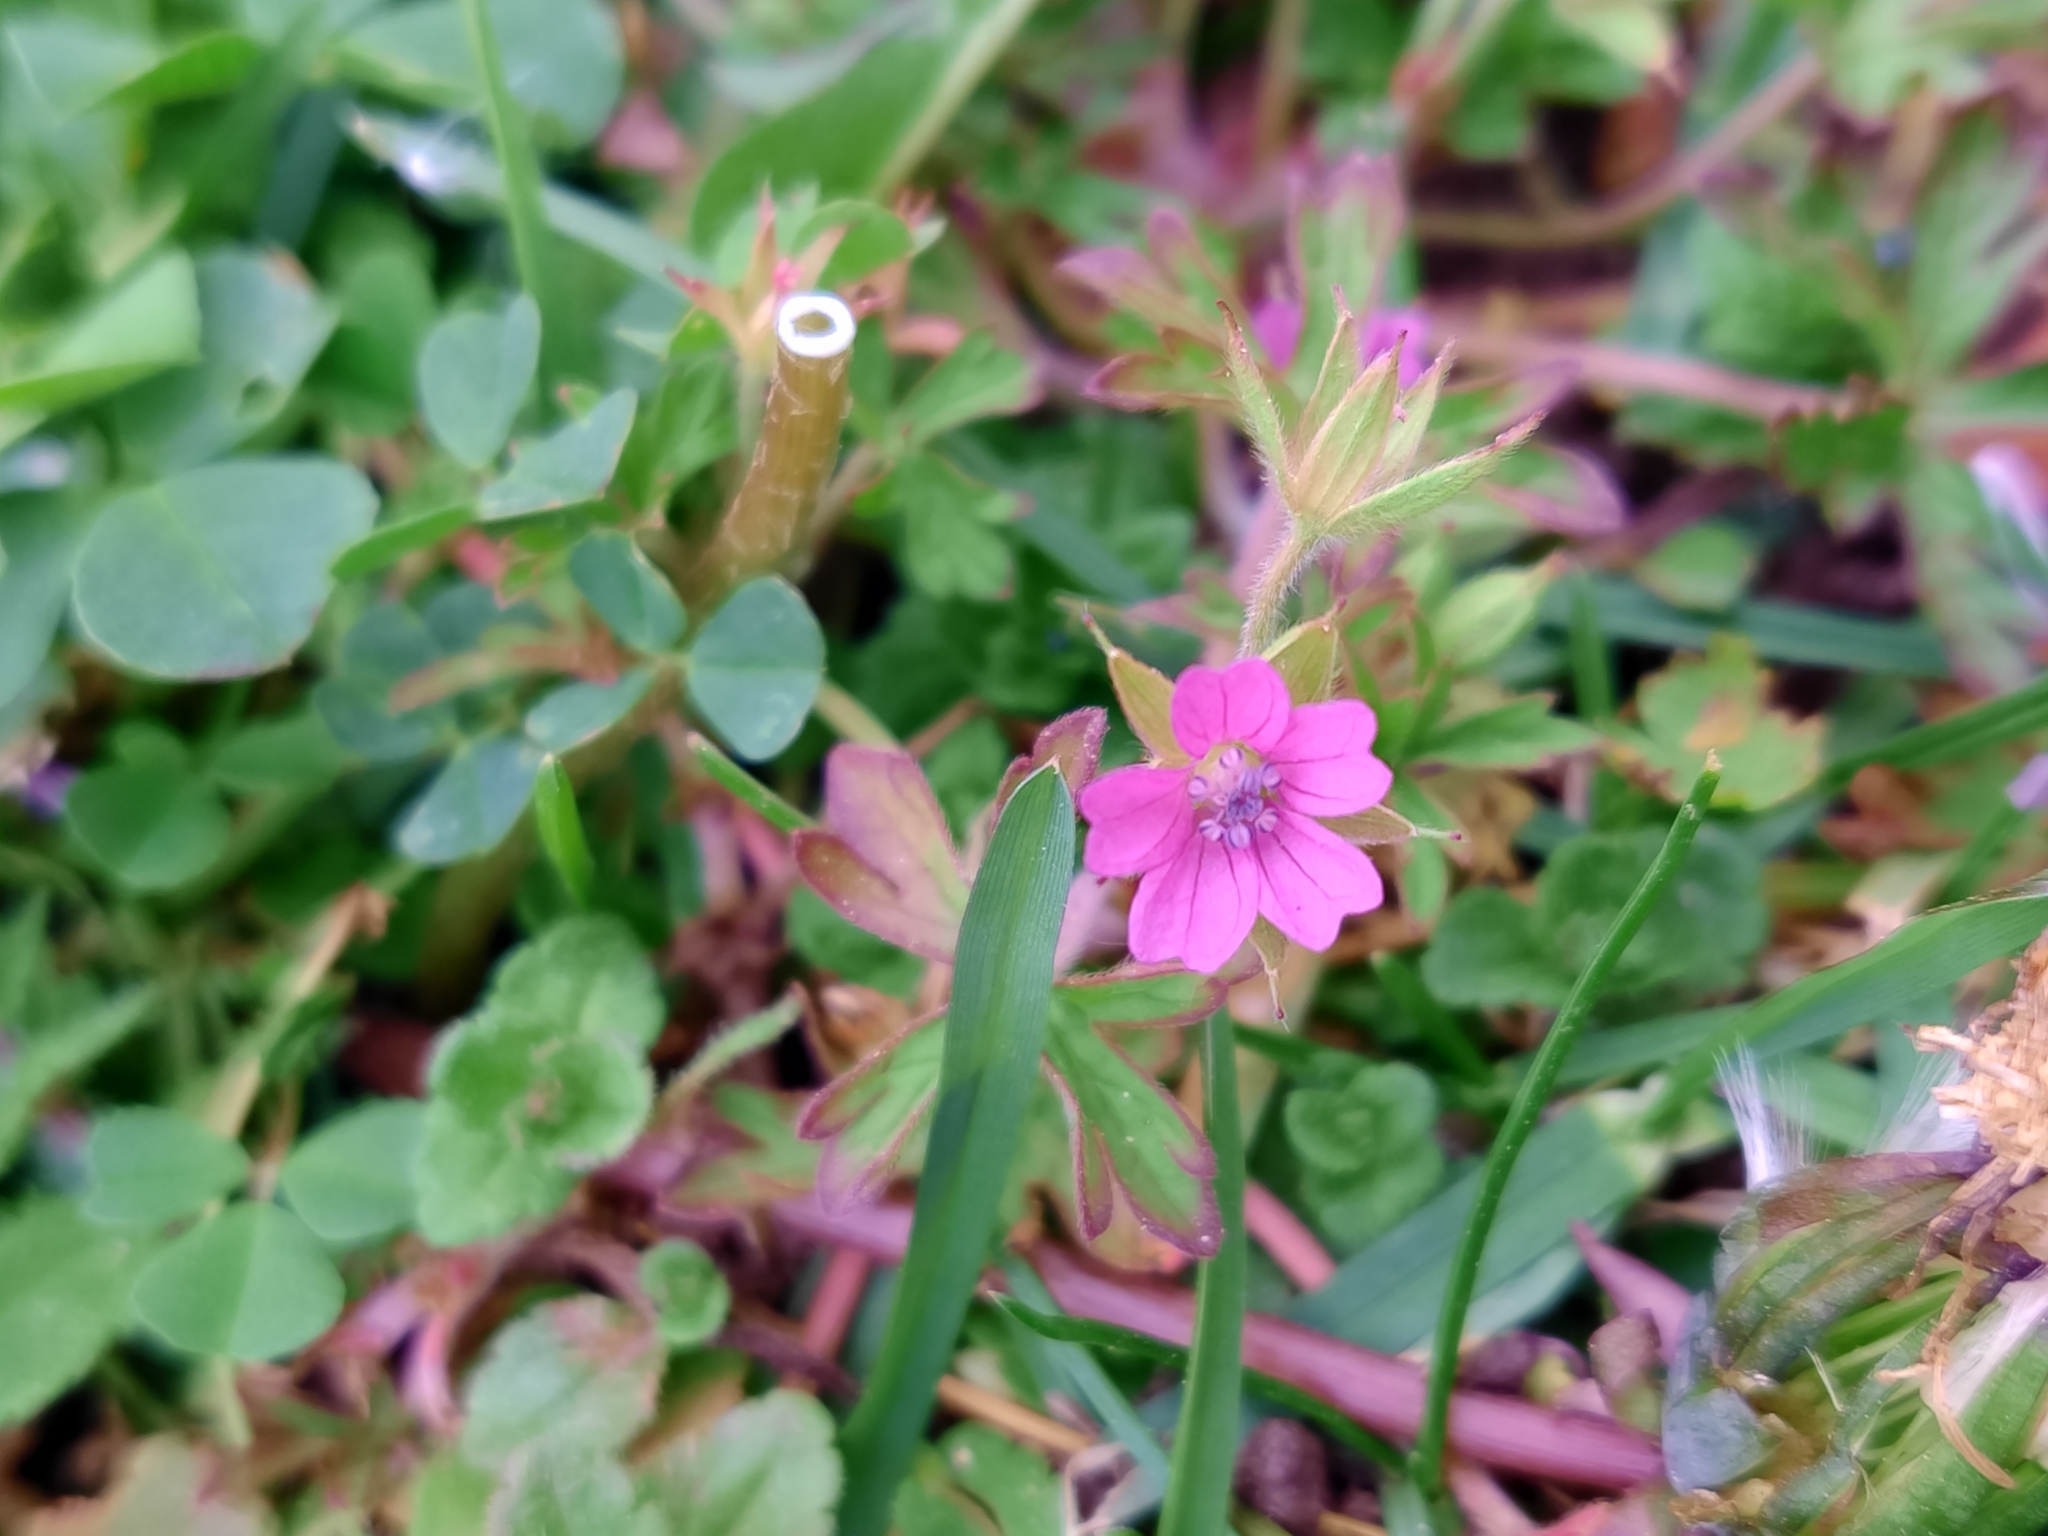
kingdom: Plantae
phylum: Tracheophyta
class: Magnoliopsida
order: Geraniales
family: Geraniaceae
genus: Geranium
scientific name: Geranium dissectum
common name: Cut-leaved crane's-bill
